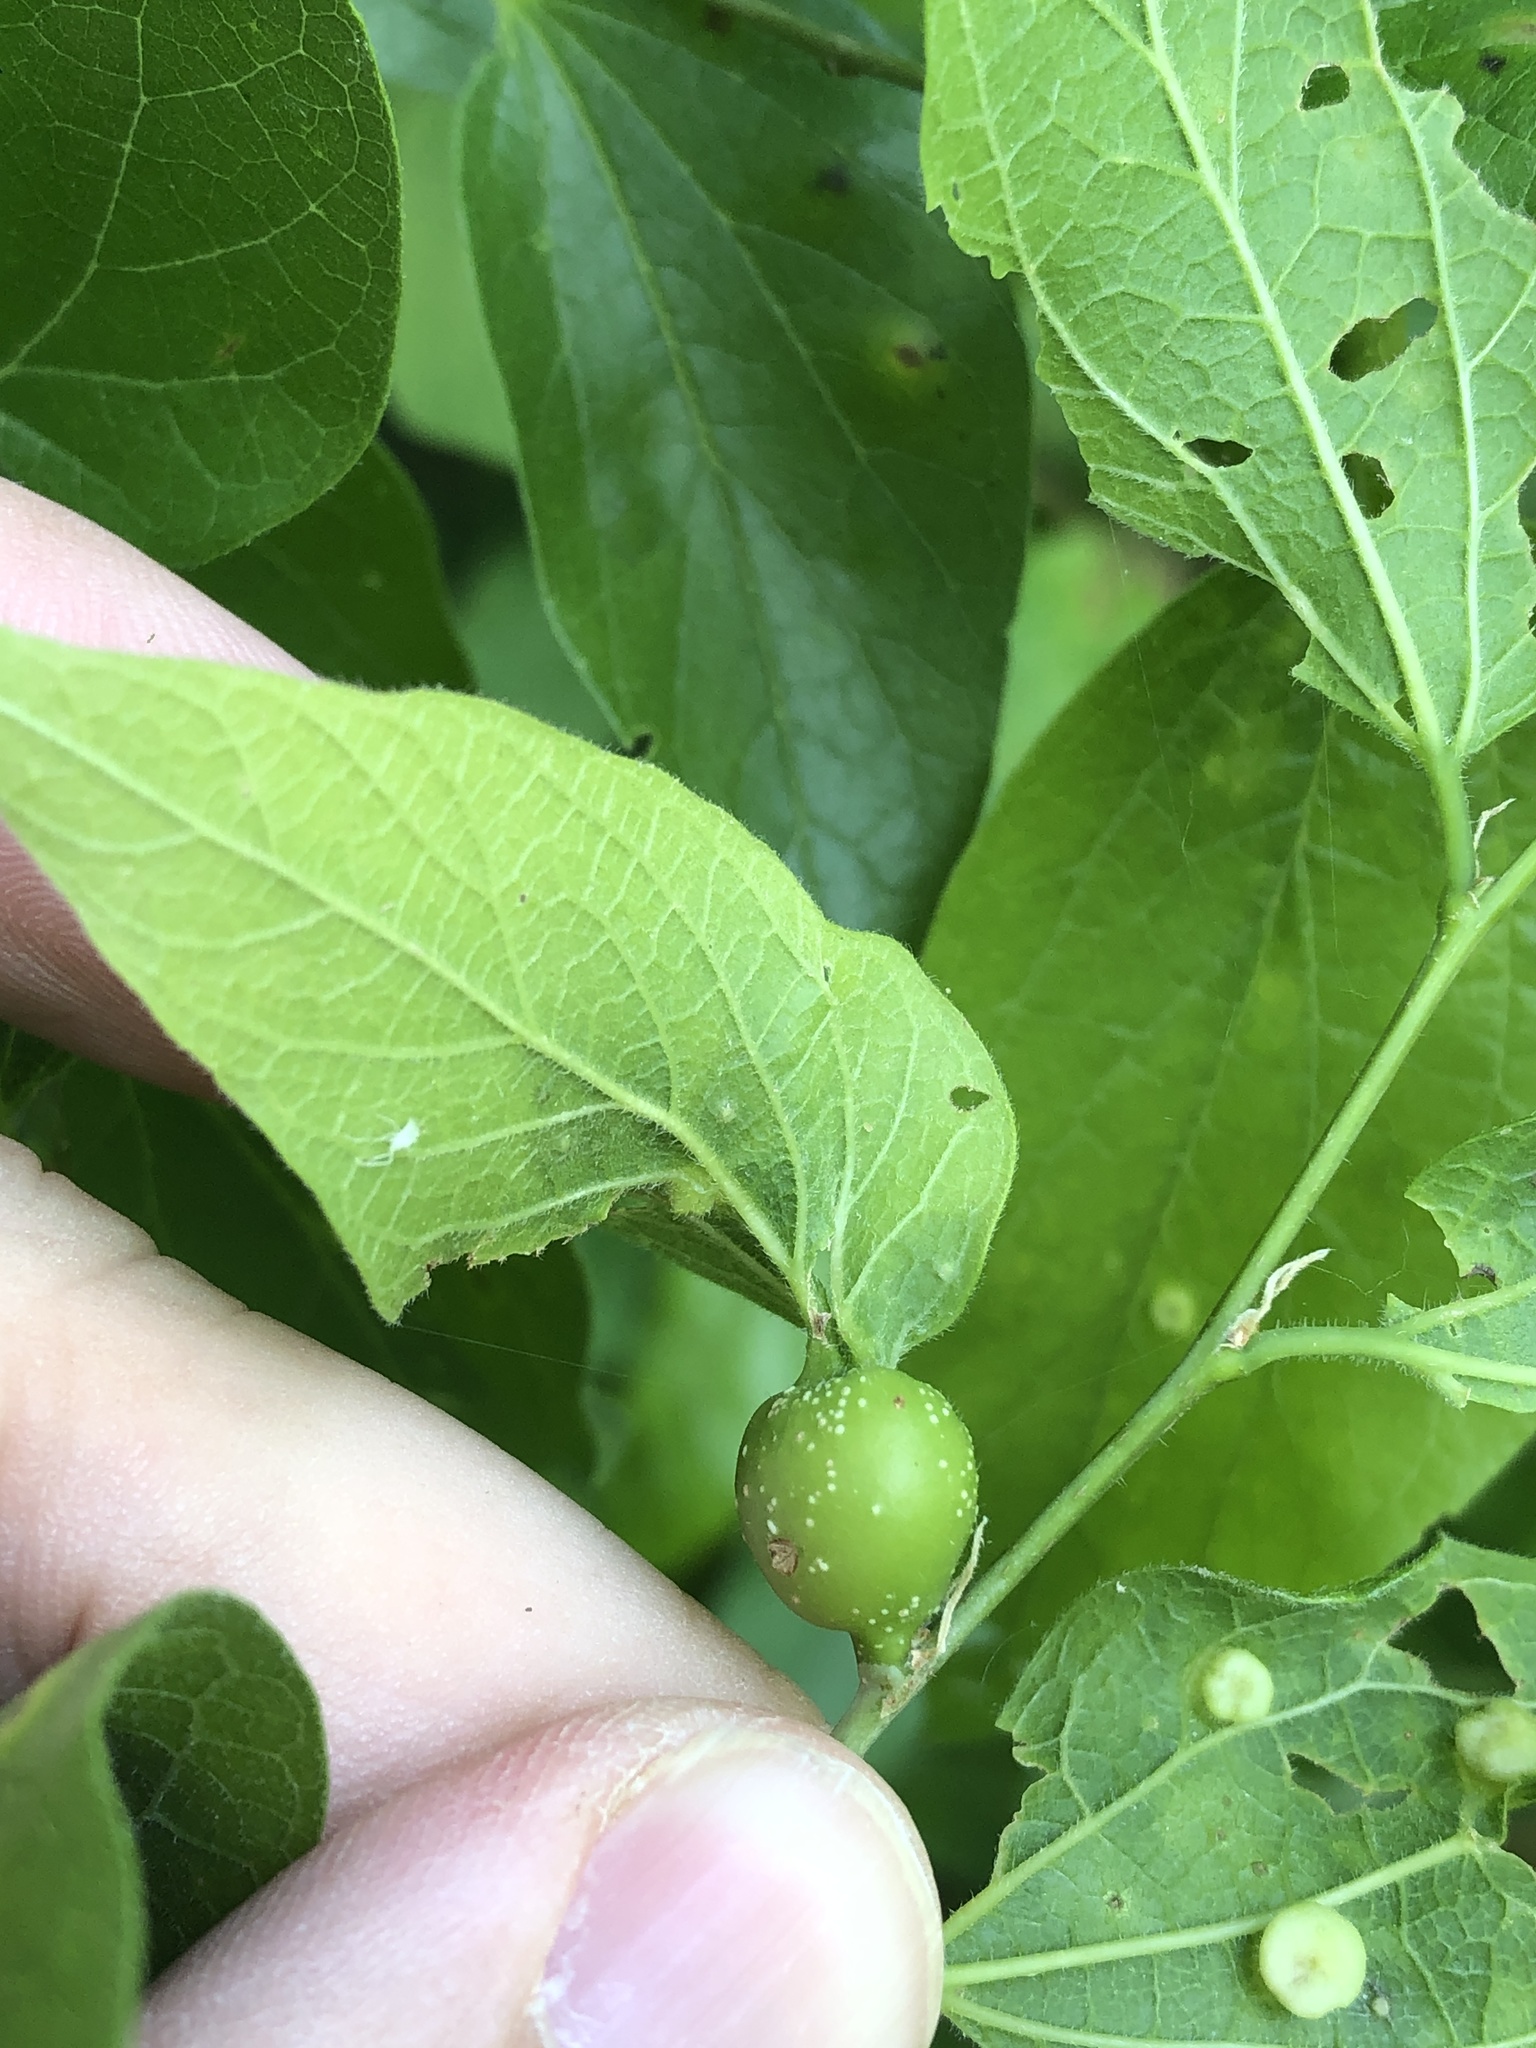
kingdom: Animalia
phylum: Arthropoda
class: Insecta
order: Hemiptera
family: Aphalaridae
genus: Pachypsylla
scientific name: Pachypsylla venusta
